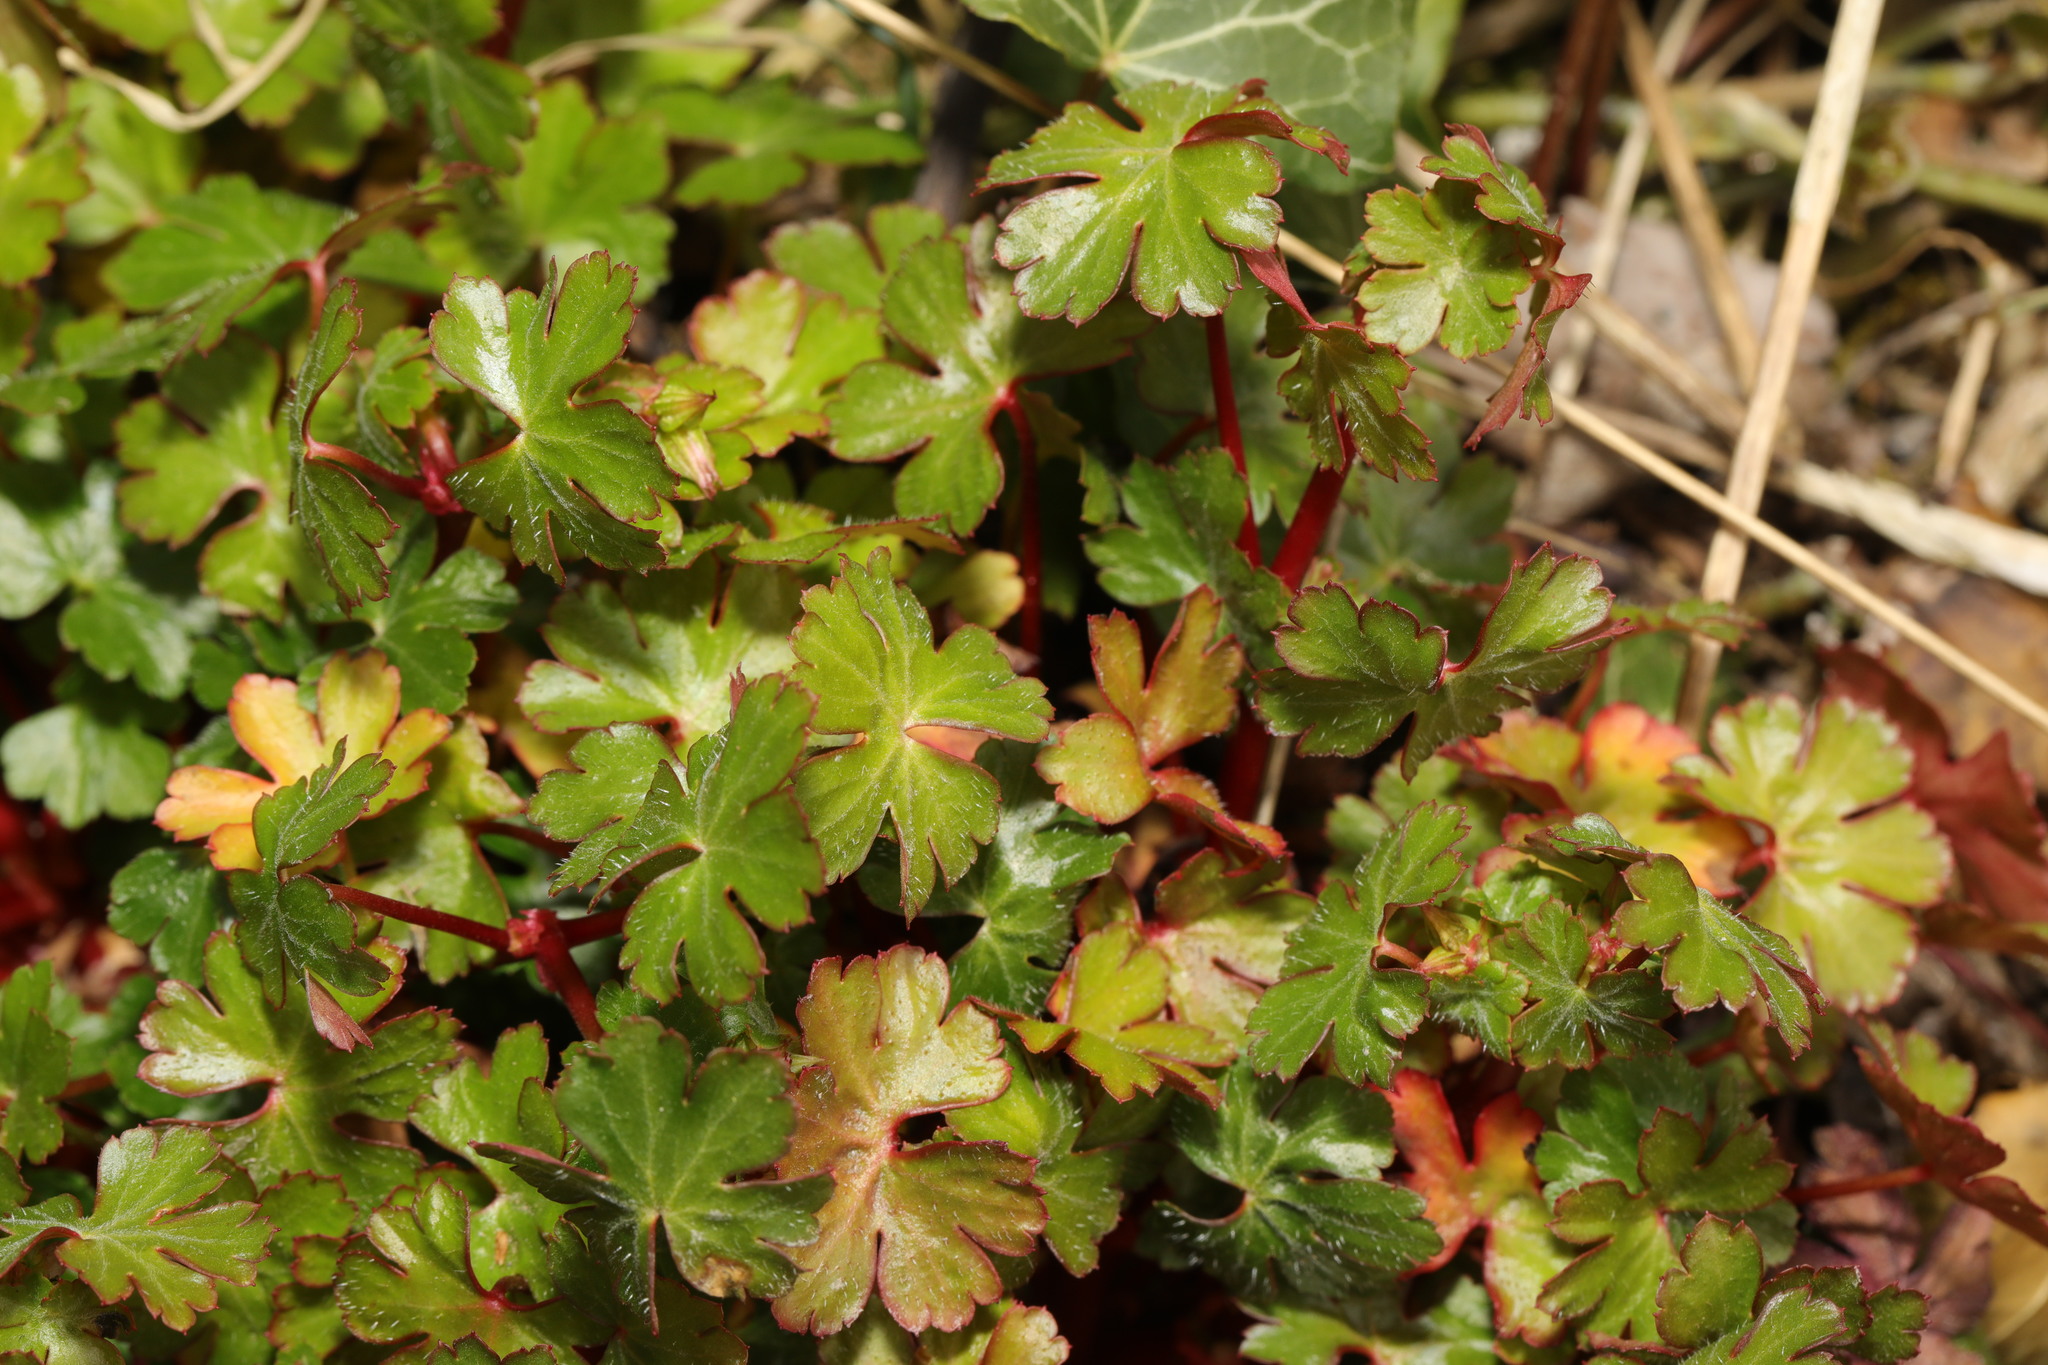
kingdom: Plantae
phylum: Tracheophyta
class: Magnoliopsida
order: Geraniales
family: Geraniaceae
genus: Geranium
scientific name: Geranium lucidum
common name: Shining crane's-bill
